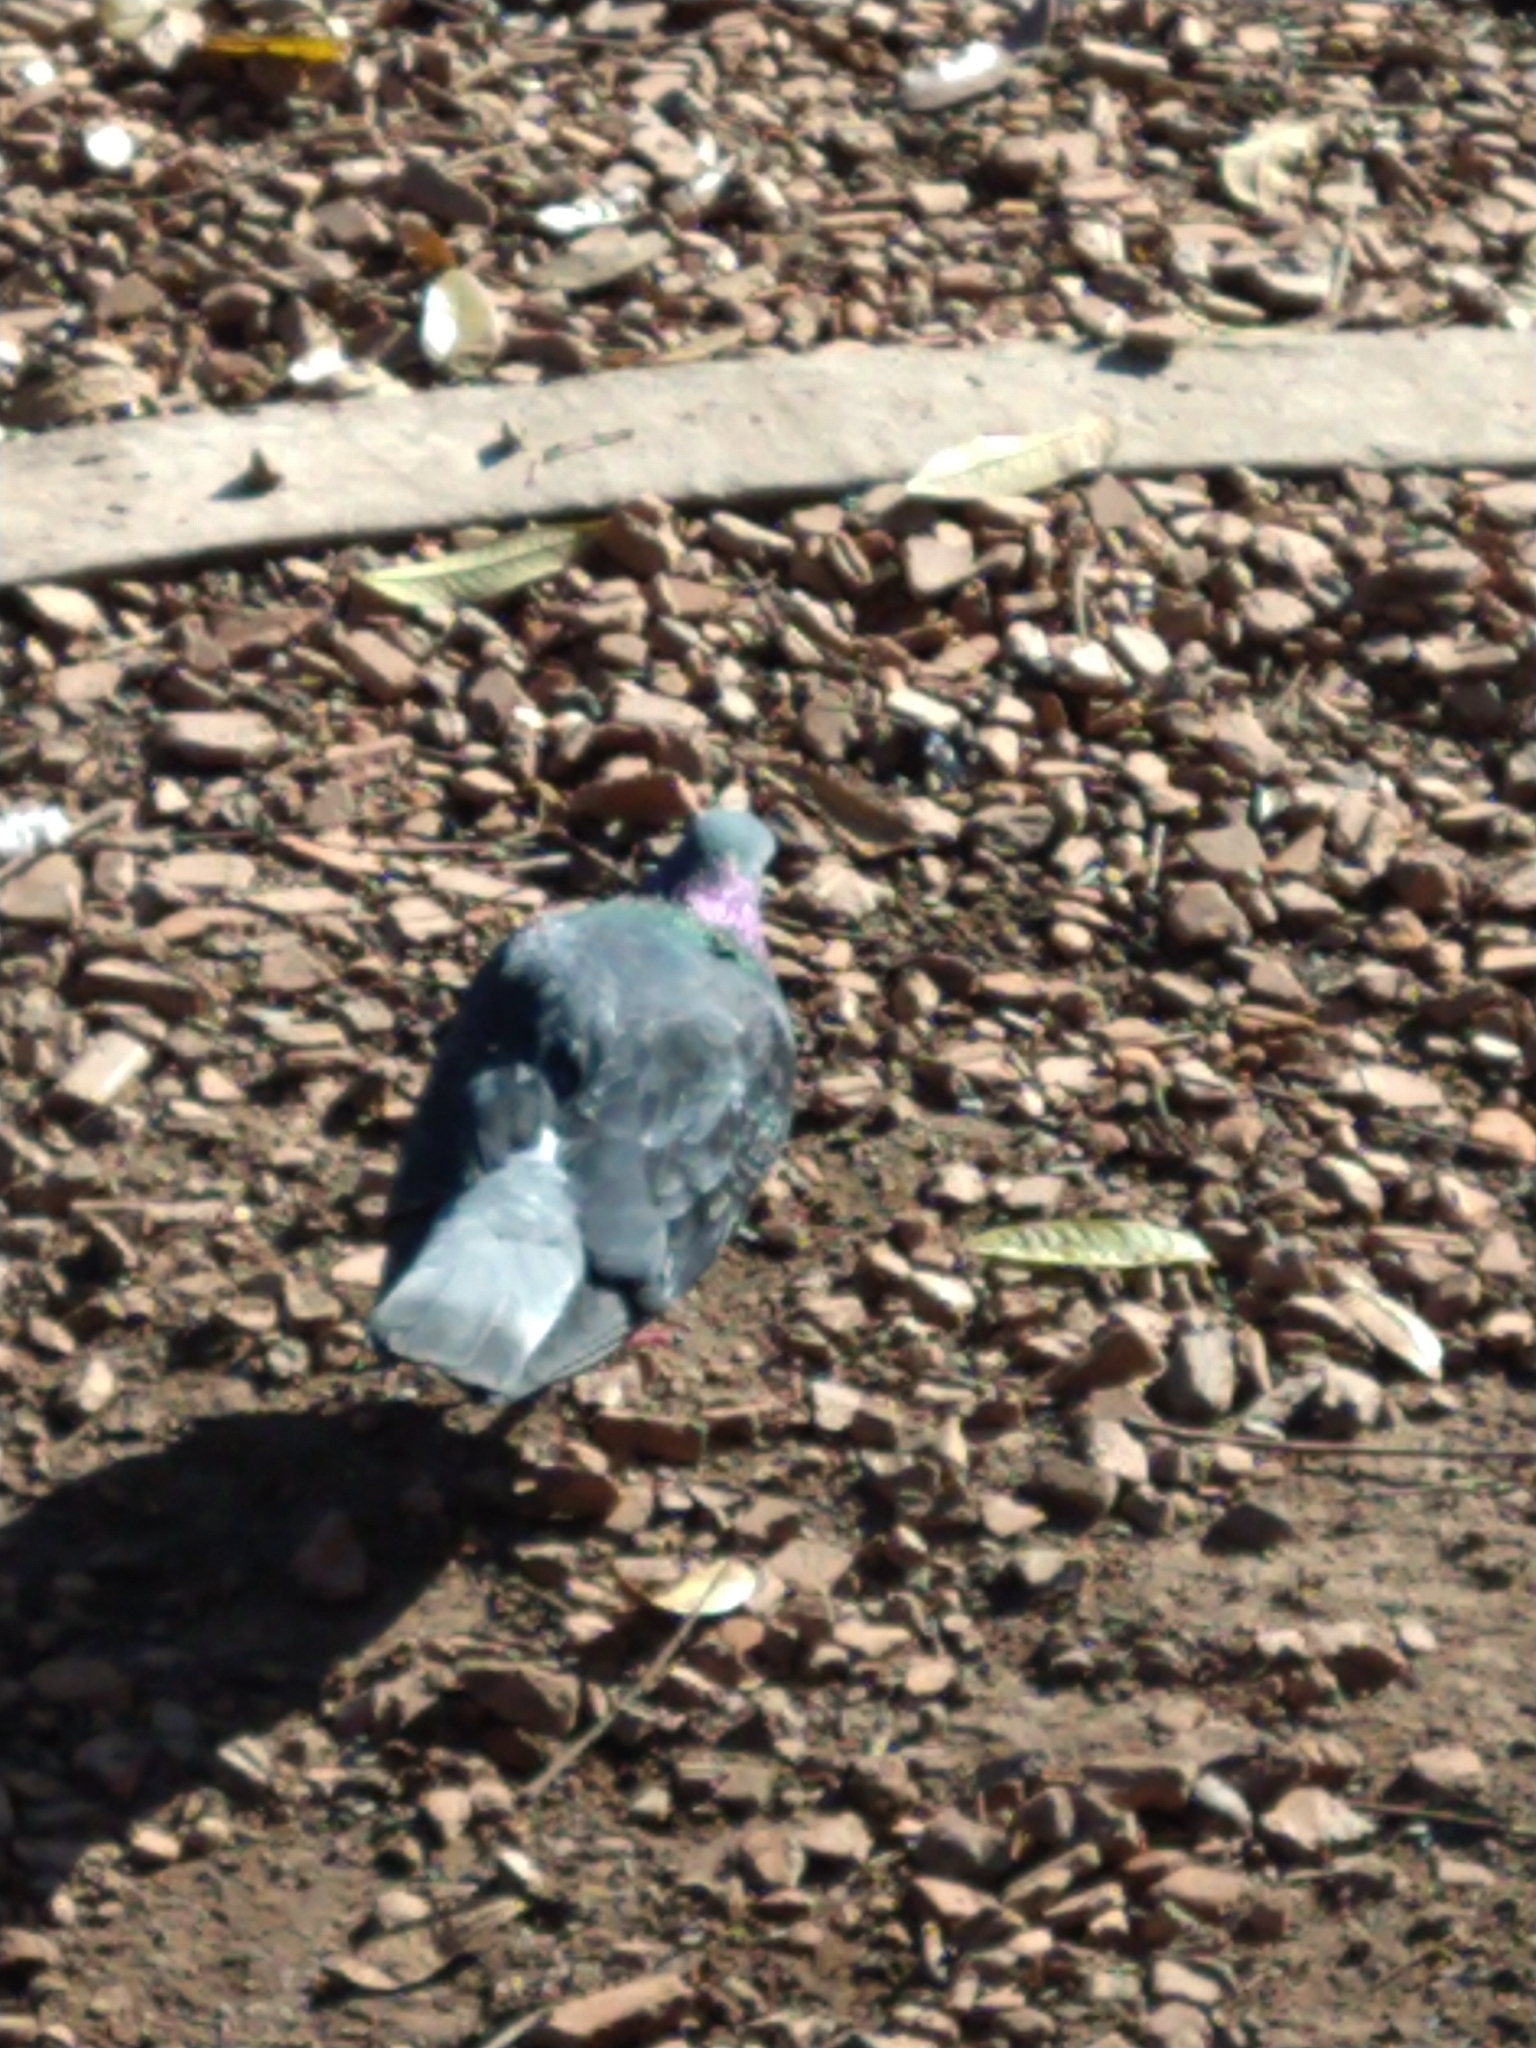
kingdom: Animalia
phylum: Chordata
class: Aves
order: Columbiformes
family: Columbidae
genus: Columba
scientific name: Columba livia
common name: Rock pigeon
